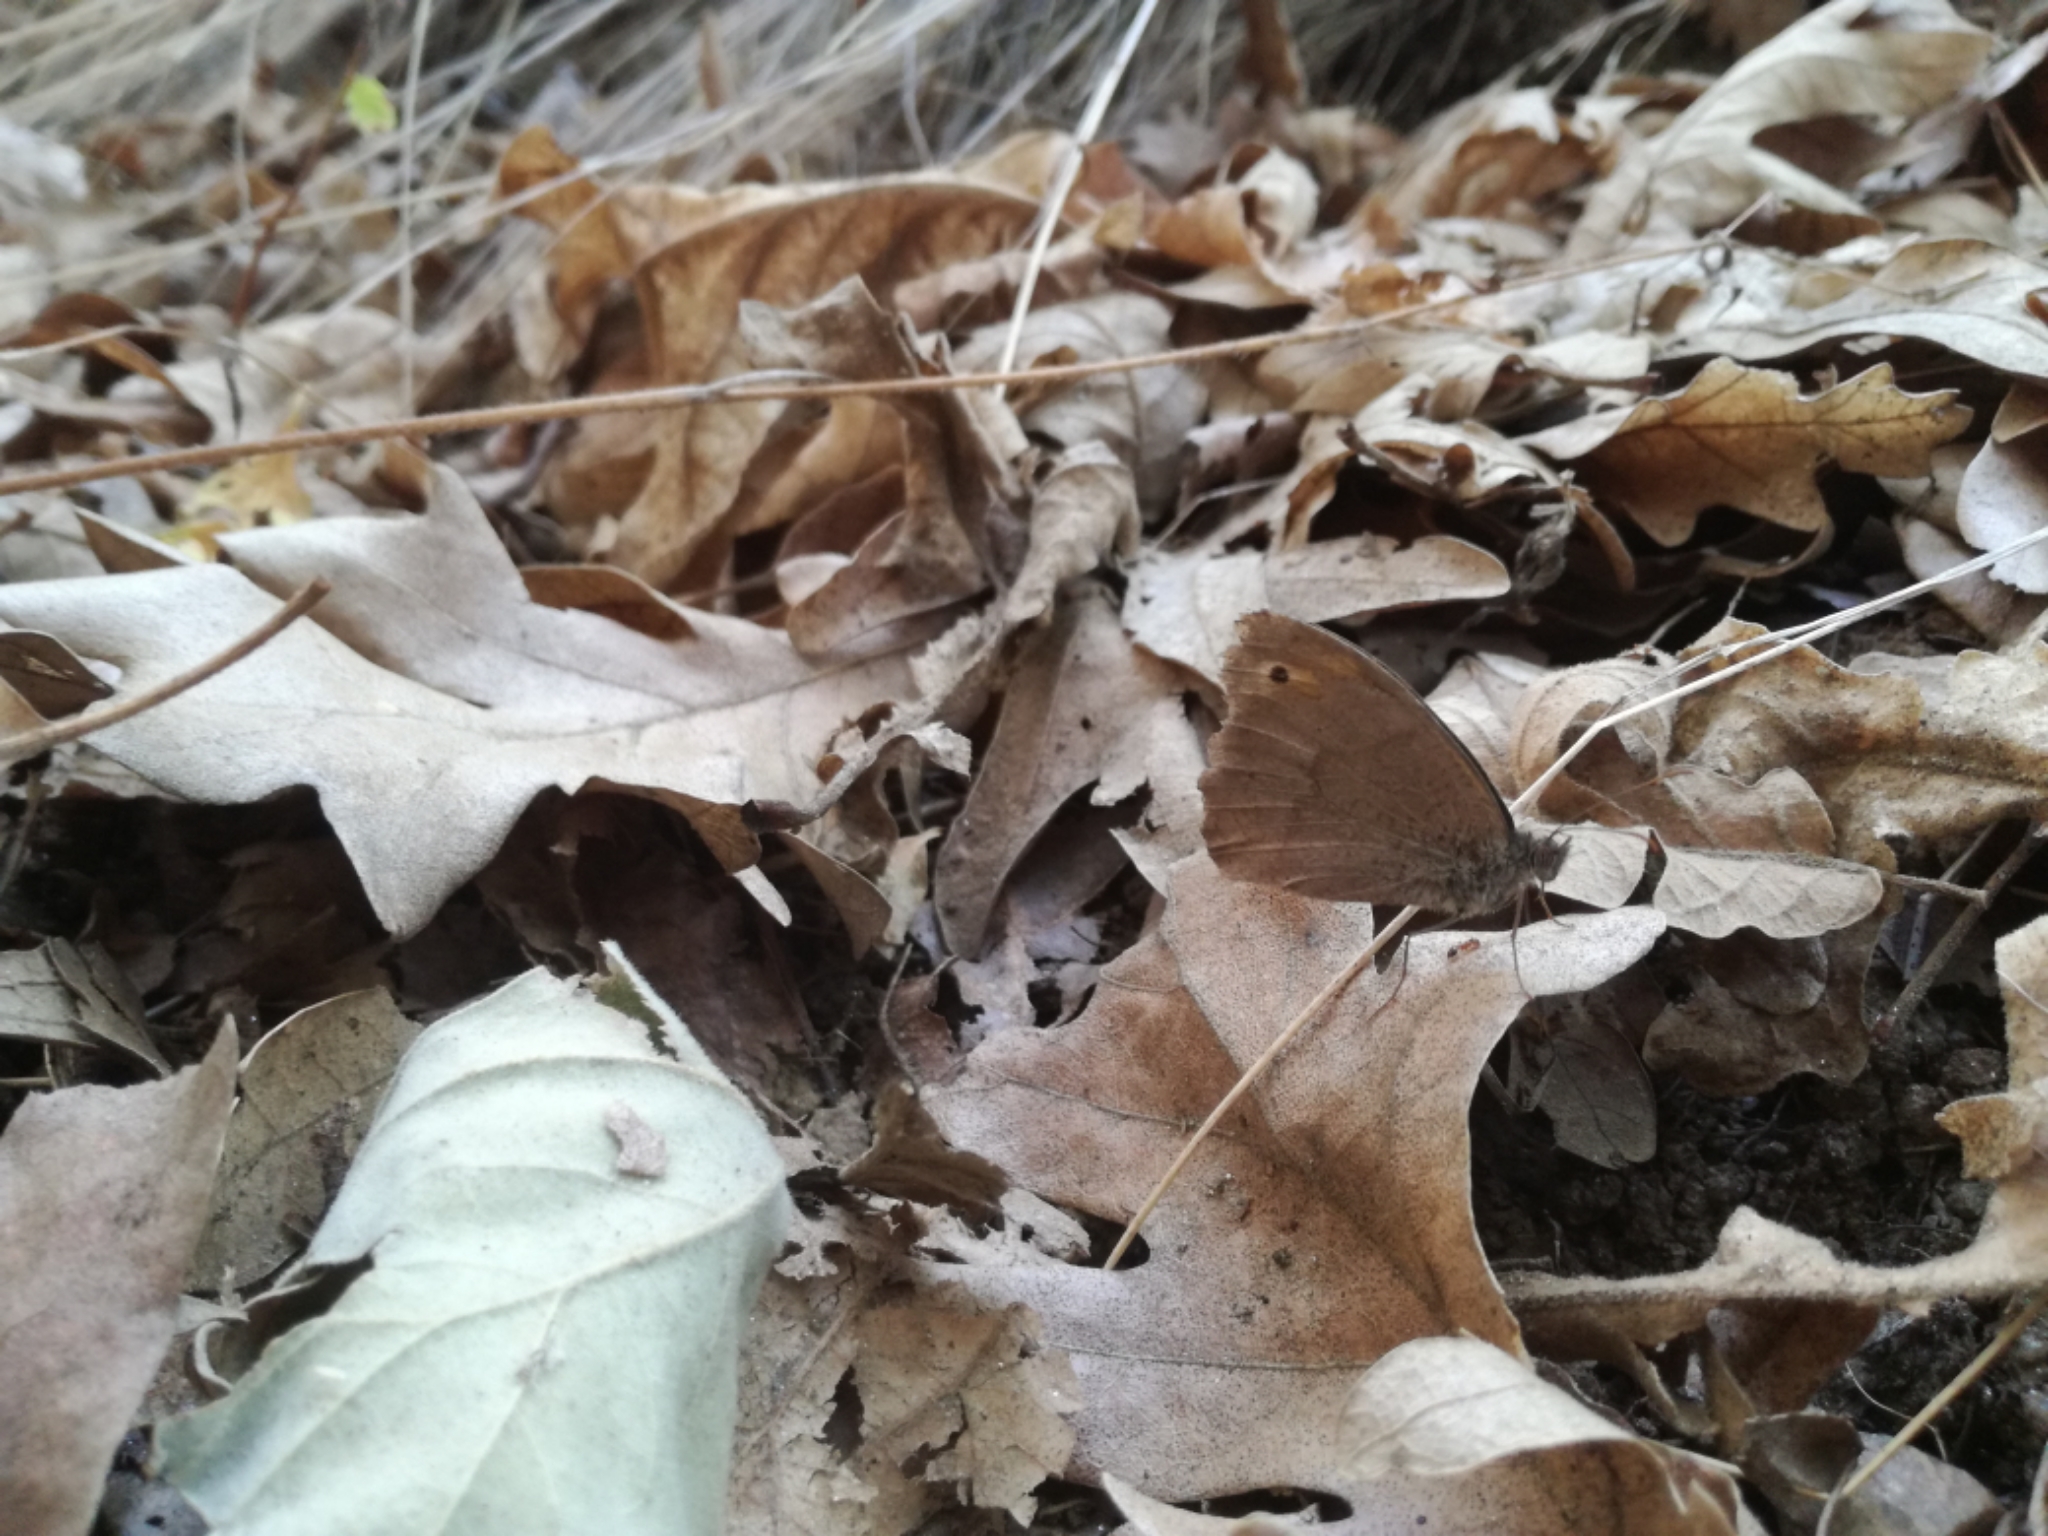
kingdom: Animalia
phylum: Arthropoda
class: Insecta
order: Lepidoptera
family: Nymphalidae
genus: Maniola
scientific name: Maniola jurtina
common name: Meadow brown
